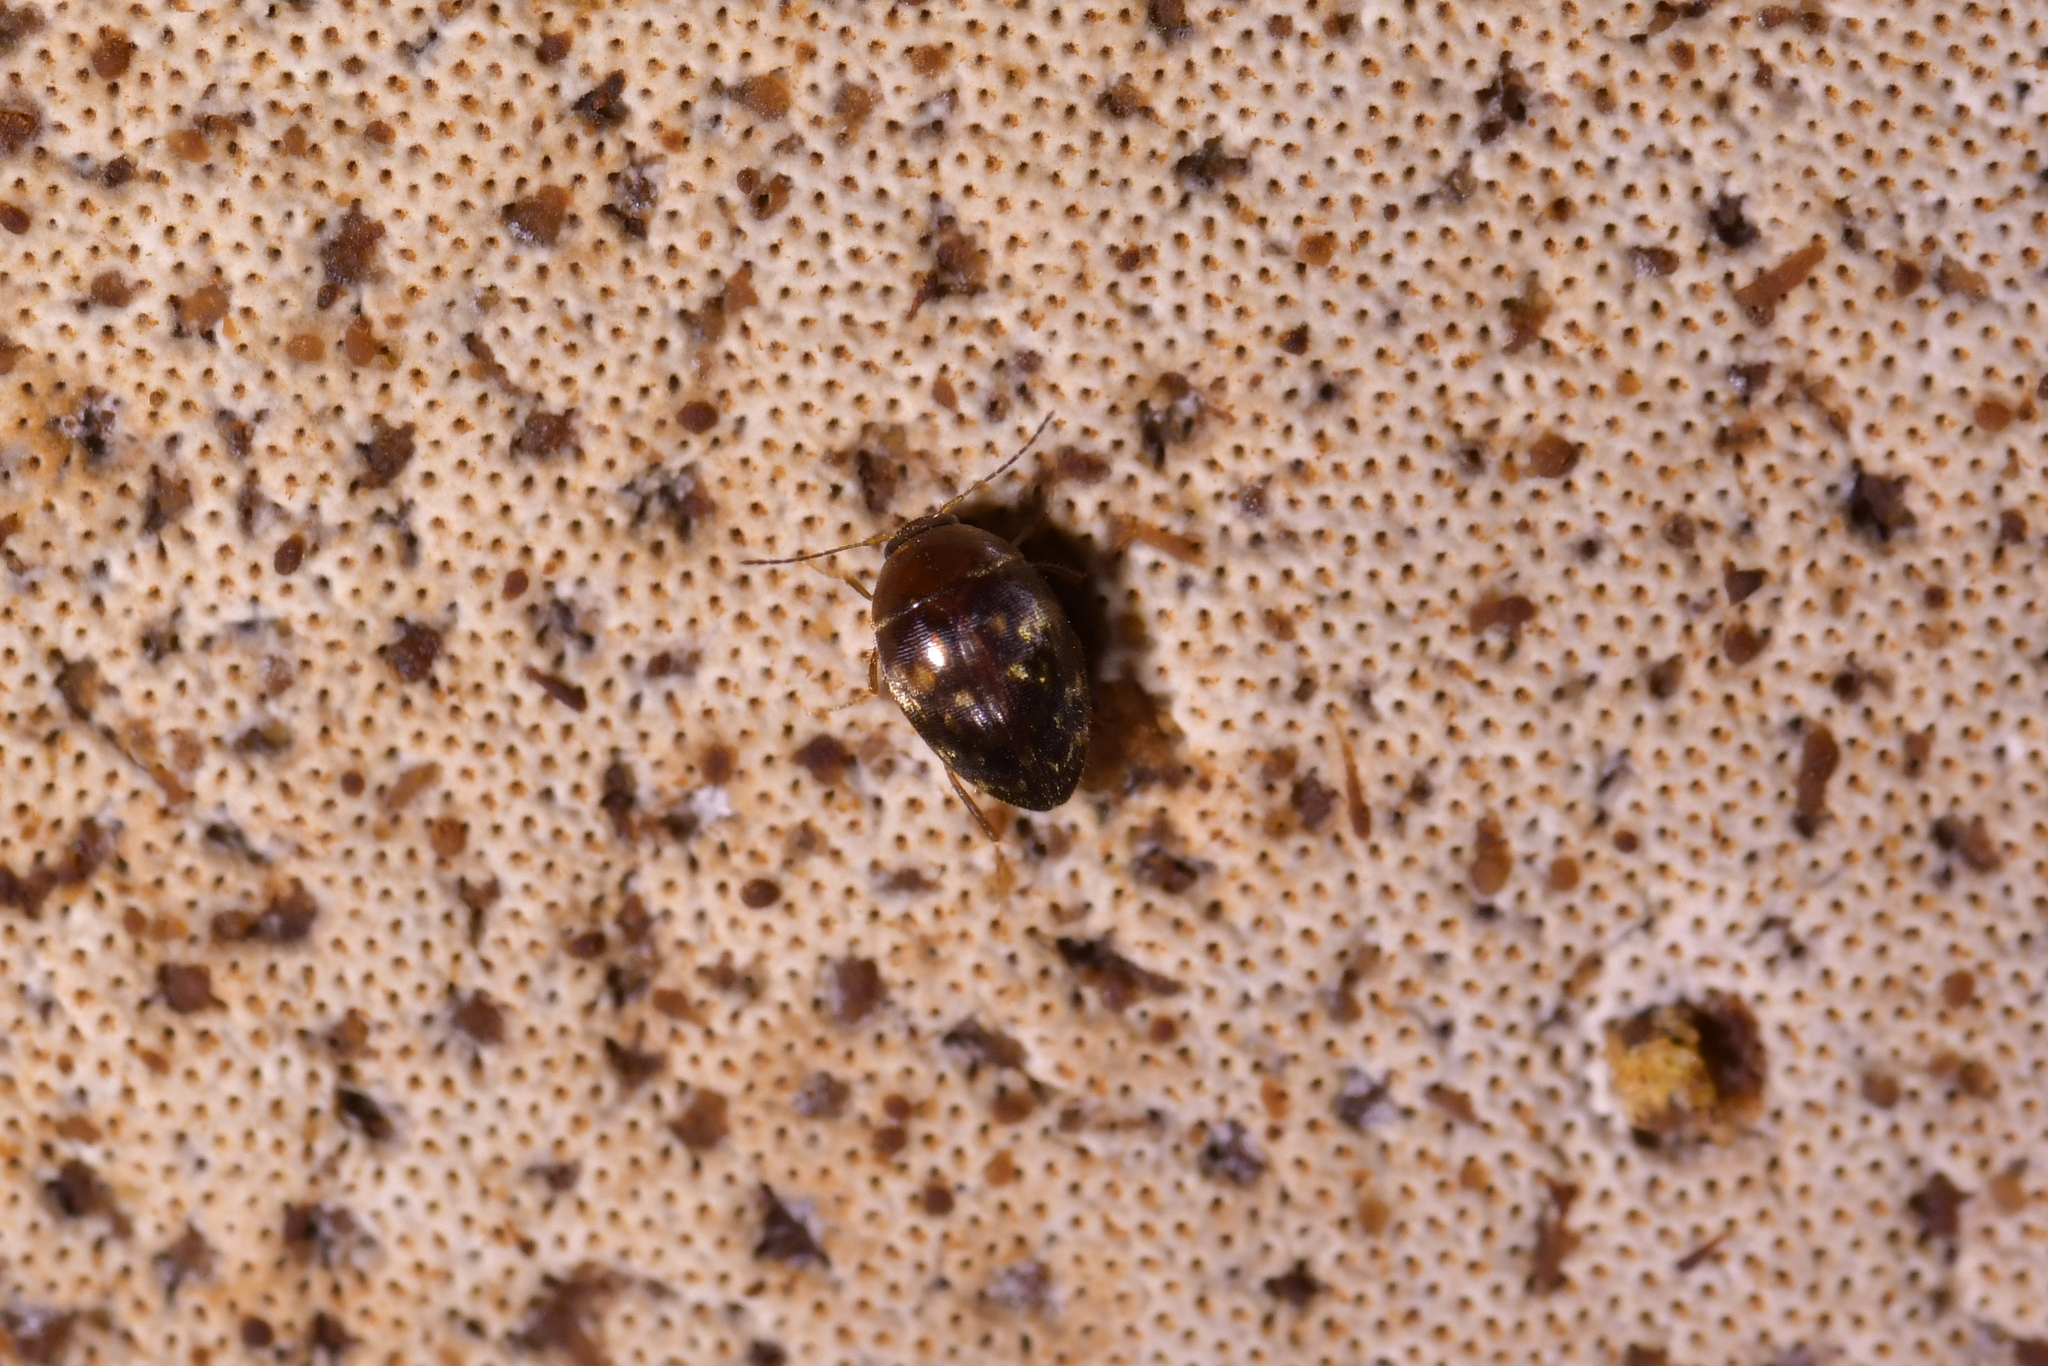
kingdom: Animalia
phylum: Arthropoda
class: Insecta
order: Coleoptera
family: Leiodidae
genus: Zearagytodes
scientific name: Zearagytodes maculifer
